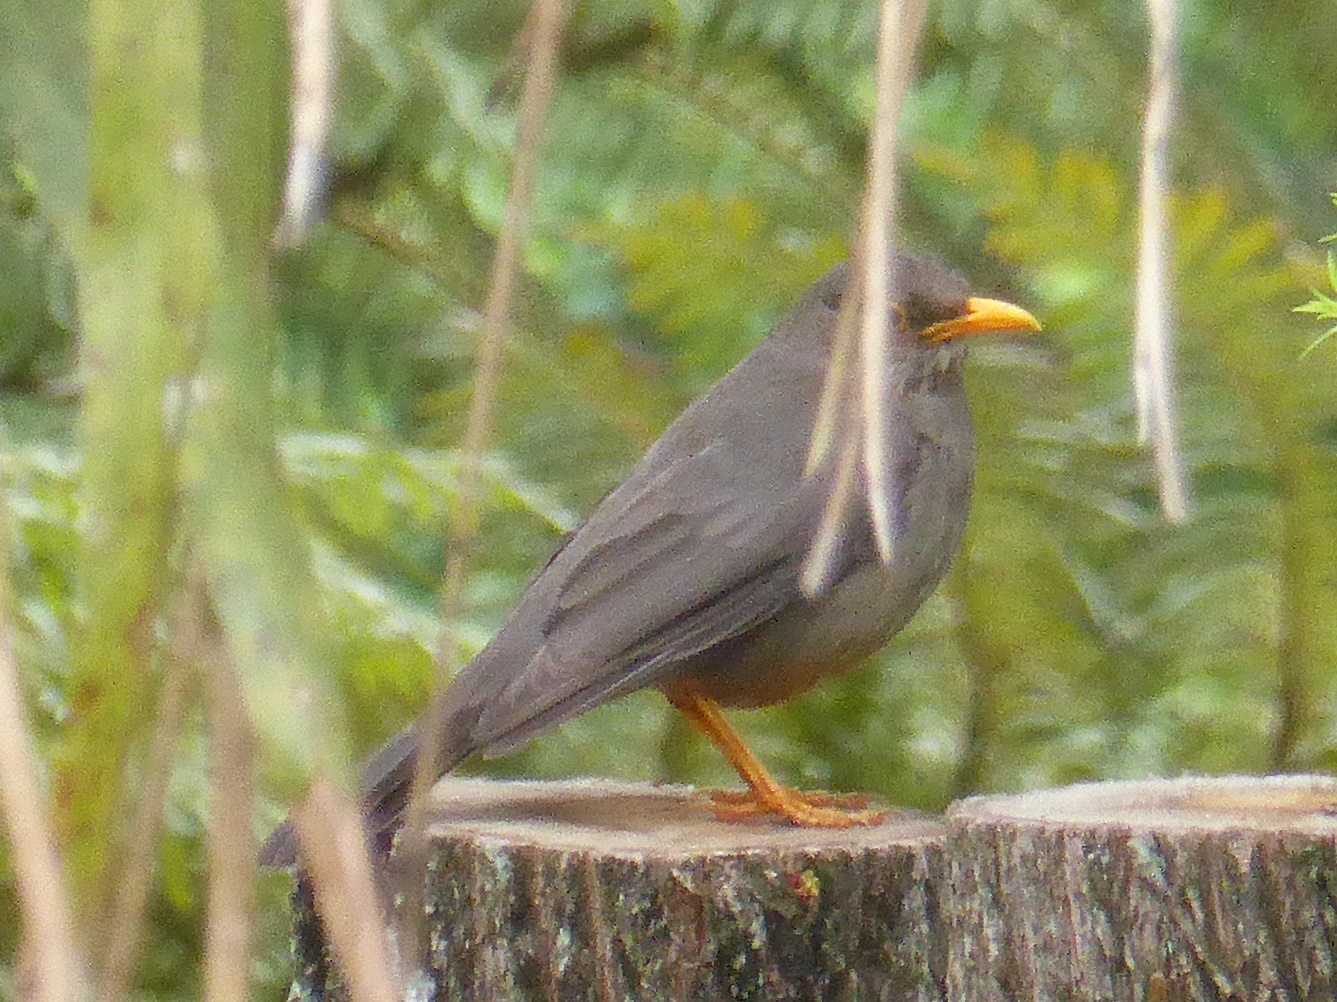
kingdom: Animalia
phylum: Chordata
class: Aves
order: Passeriformes
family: Turdidae
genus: Turdus
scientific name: Turdus smithi
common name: Karoo thrush
